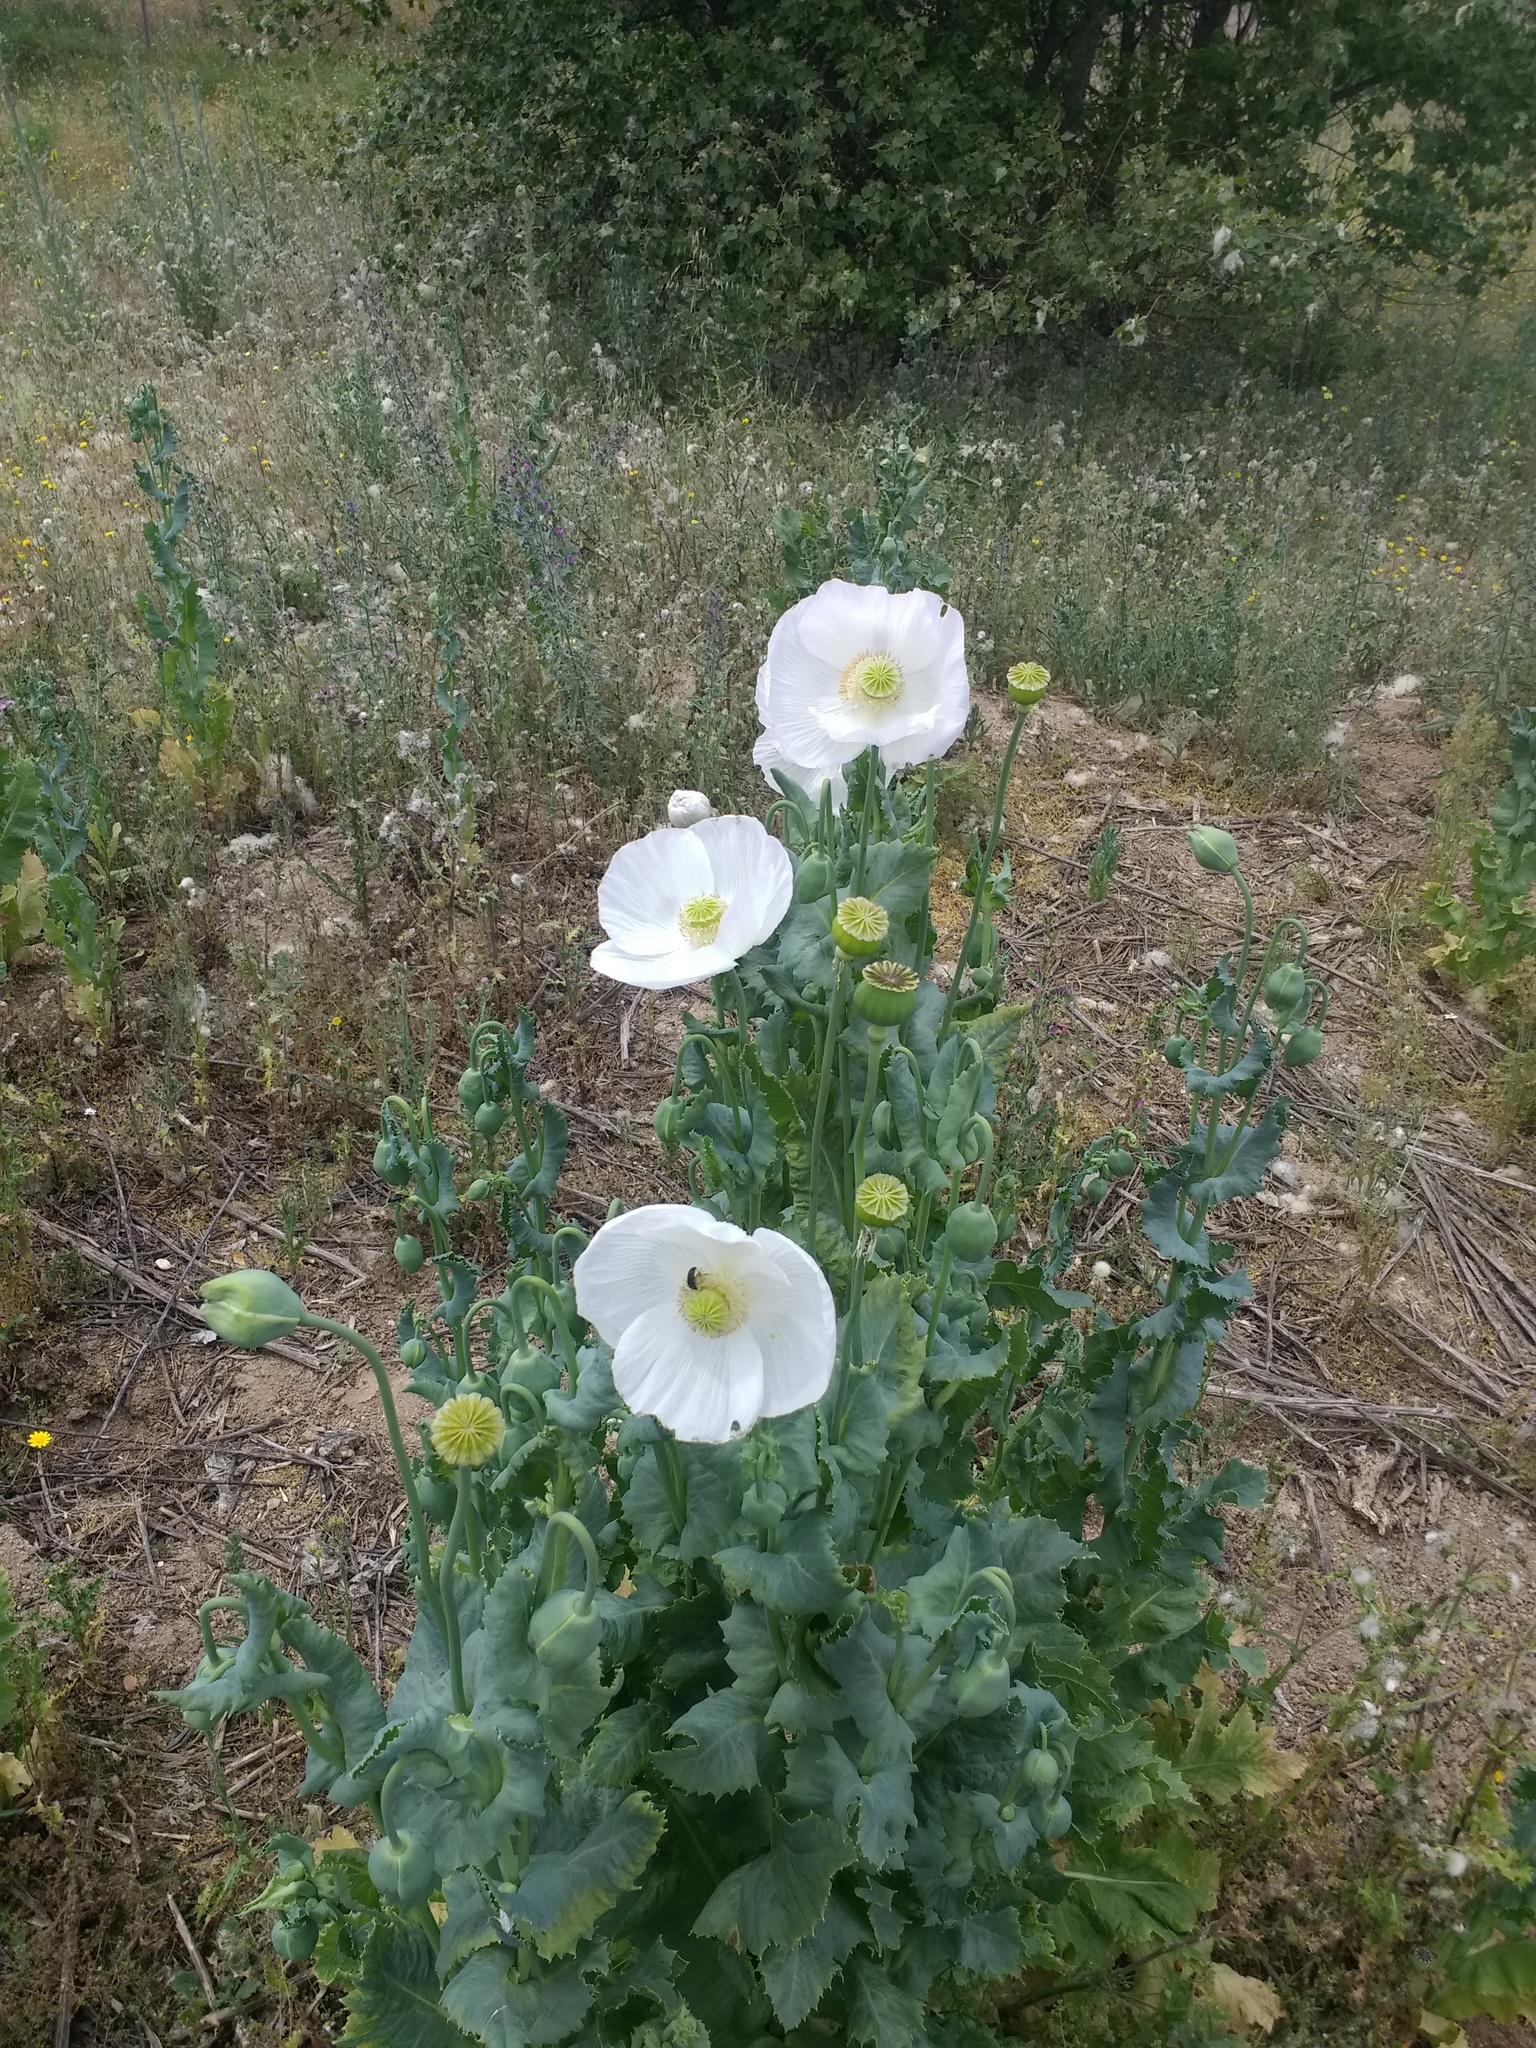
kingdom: Plantae
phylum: Tracheophyta
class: Magnoliopsida
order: Ranunculales
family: Papaveraceae
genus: Papaver
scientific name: Papaver somniferum
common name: Opium poppy
